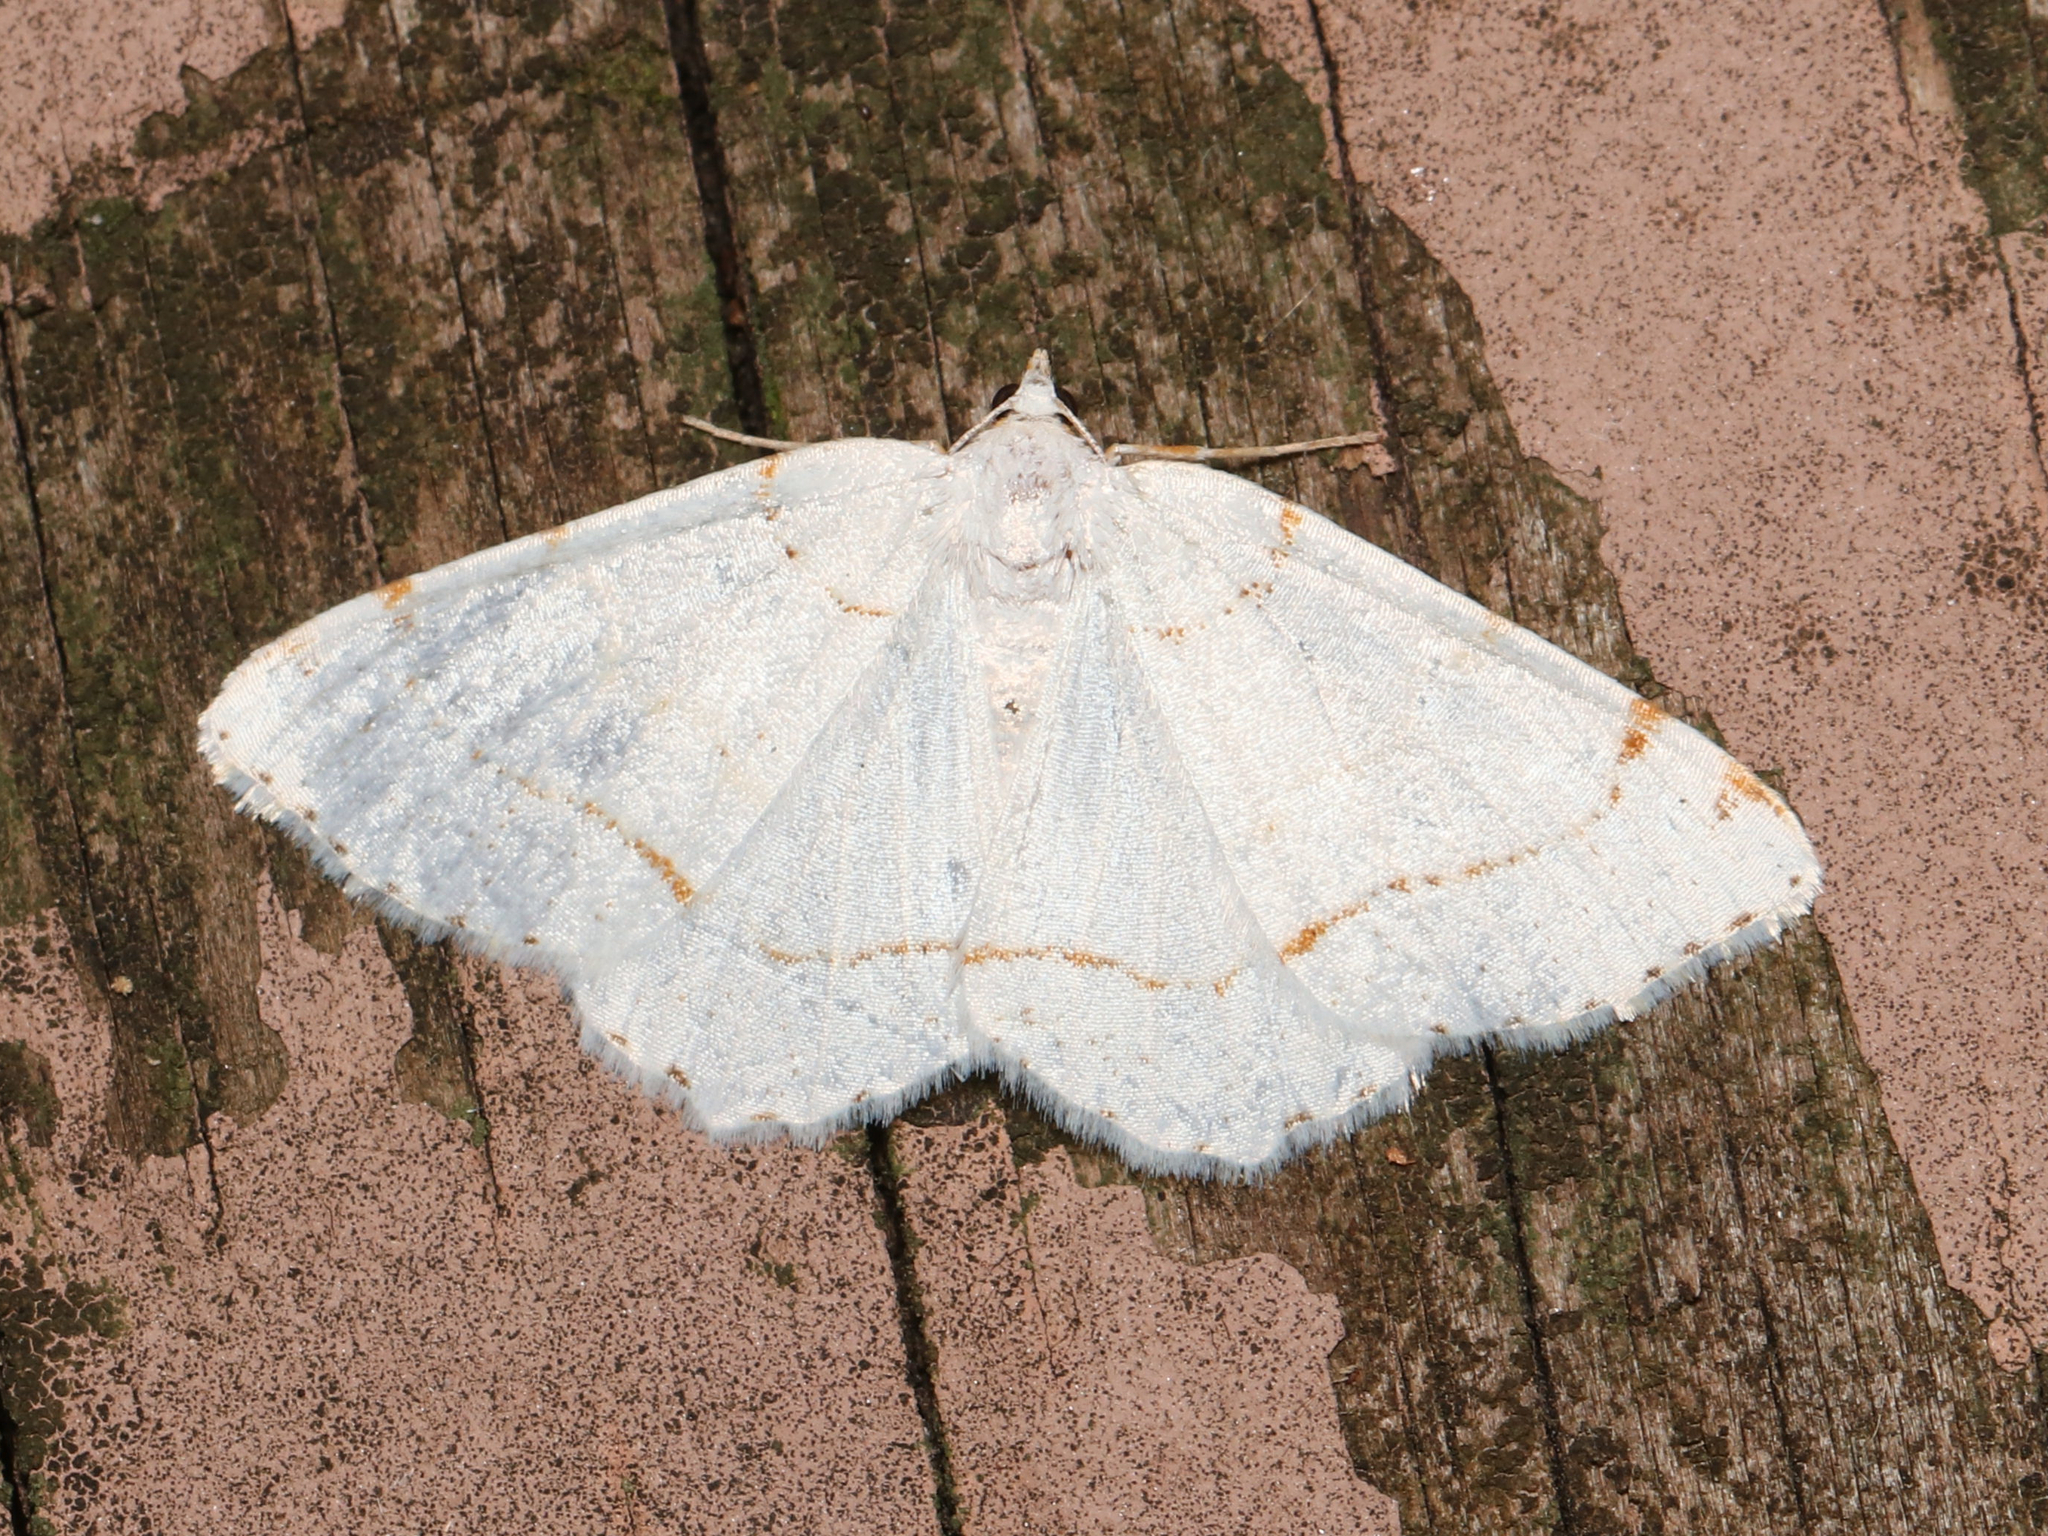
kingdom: Animalia
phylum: Arthropoda
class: Insecta
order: Lepidoptera
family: Geometridae
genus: Macaria
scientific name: Macaria pustularia
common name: Lesser maple spanworm moth
